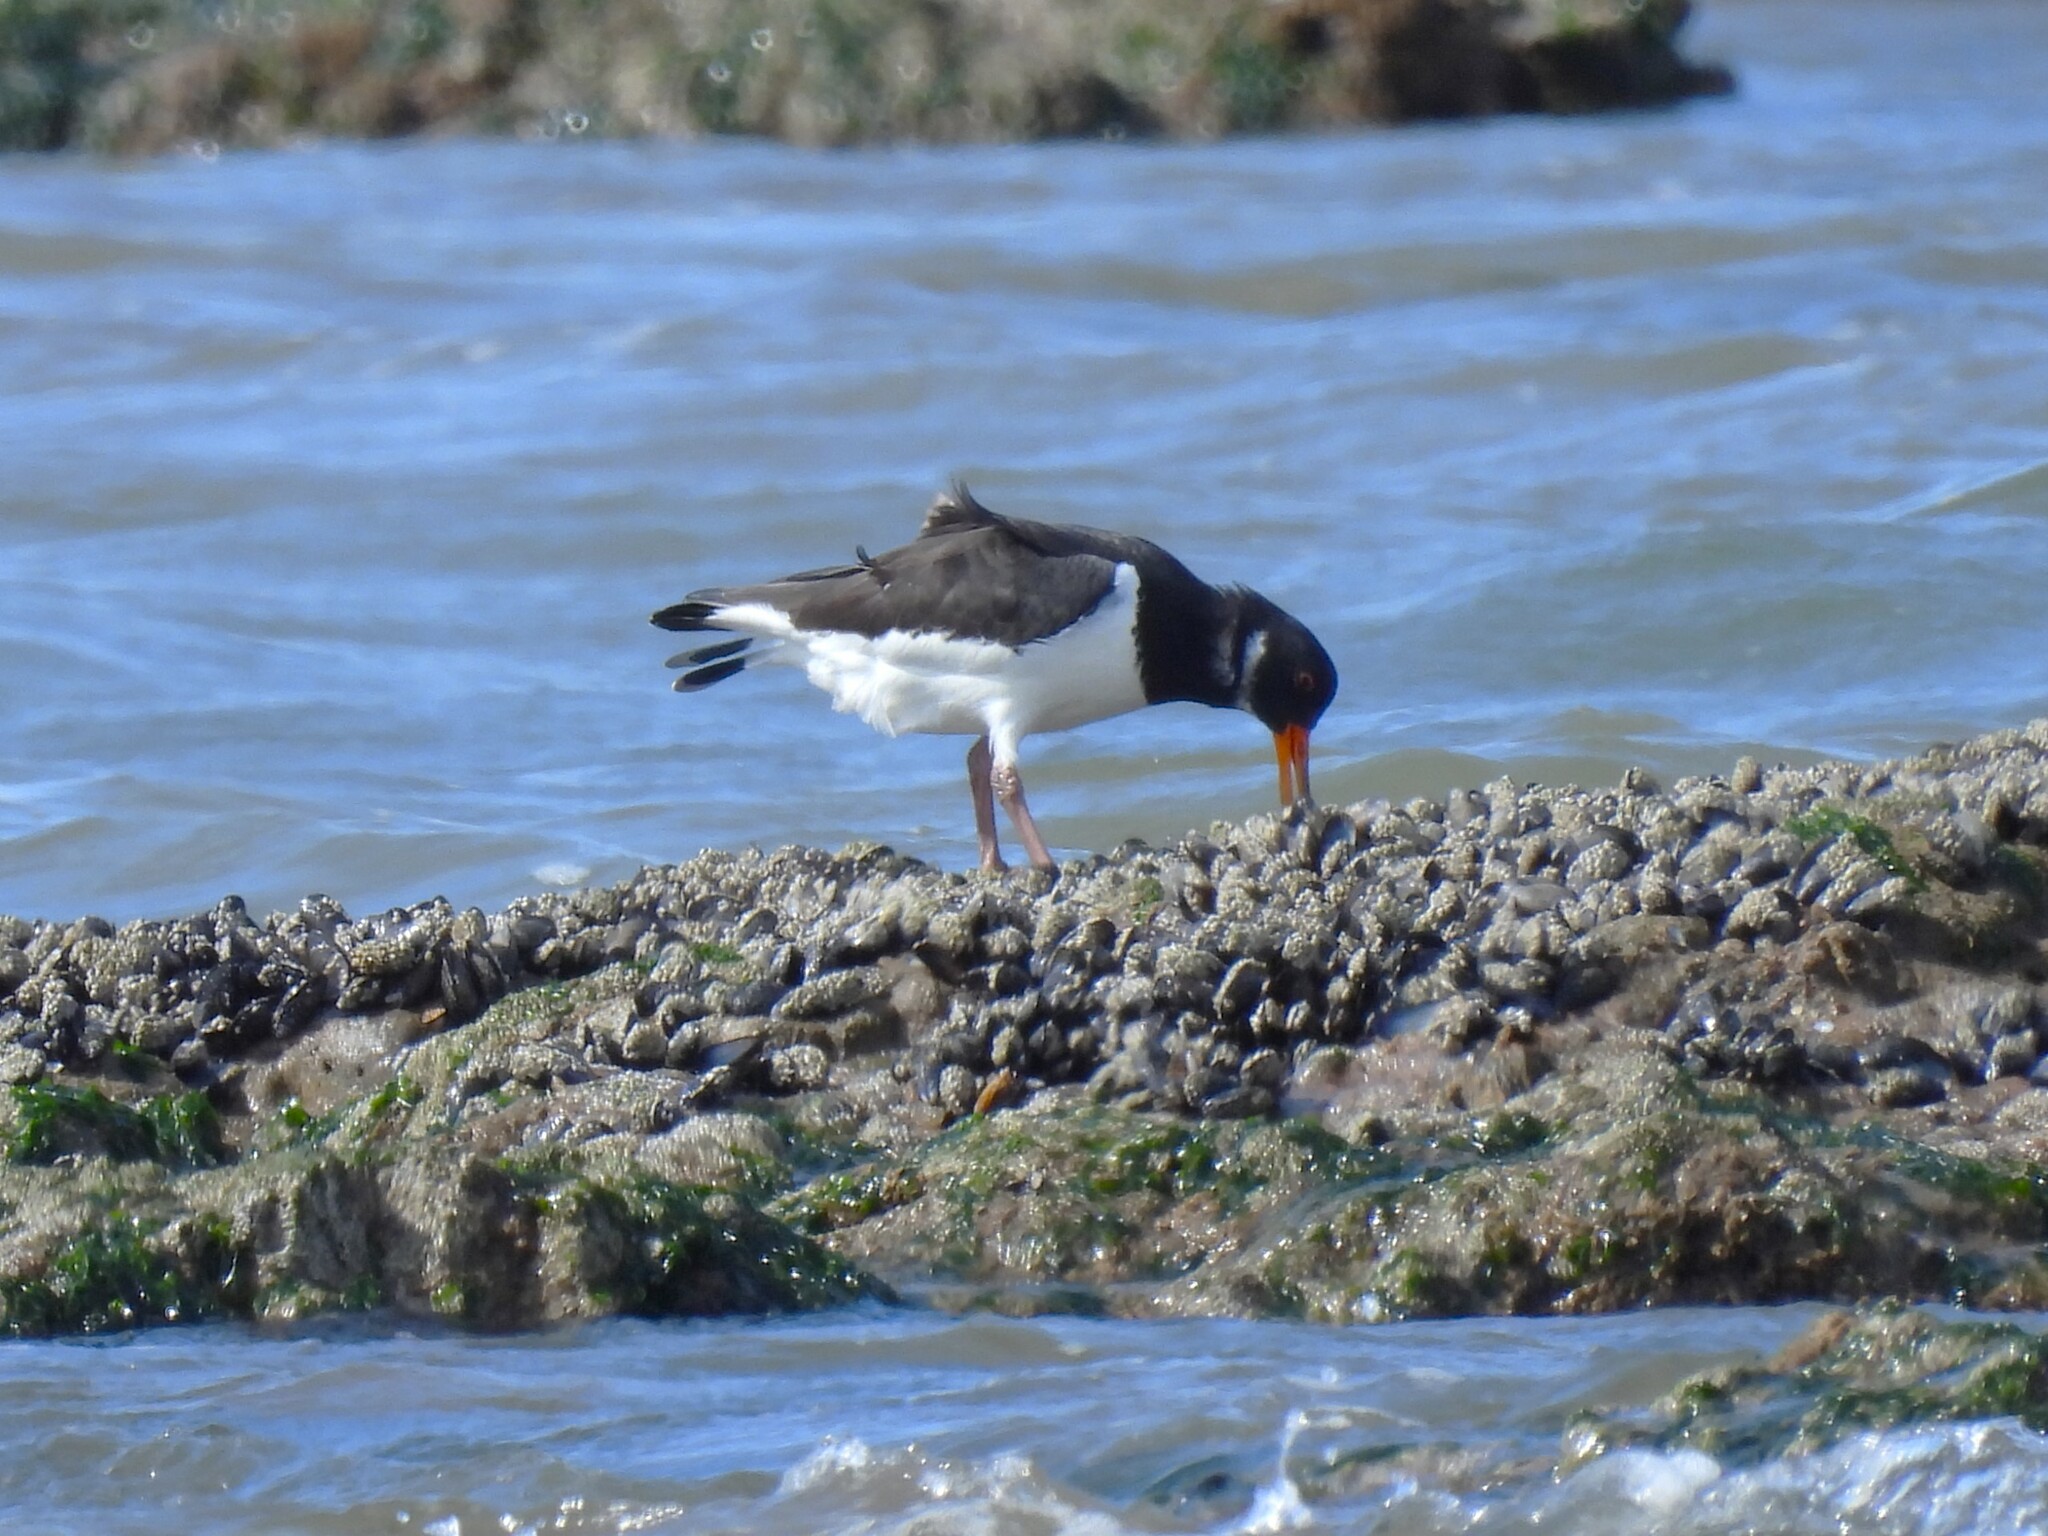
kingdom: Animalia
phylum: Chordata
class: Aves
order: Charadriiformes
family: Haematopodidae
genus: Haematopus
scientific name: Haematopus ostralegus
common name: Eurasian oystercatcher
